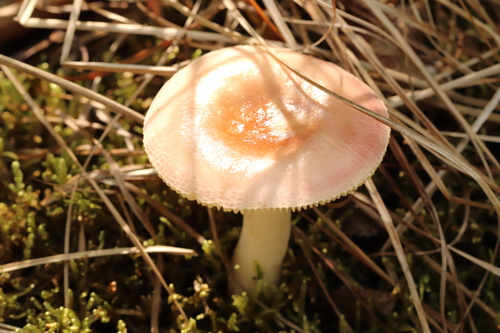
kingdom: Fungi
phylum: Basidiomycota
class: Agaricomycetes
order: Russulales
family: Russulaceae
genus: Russula
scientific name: Russula
